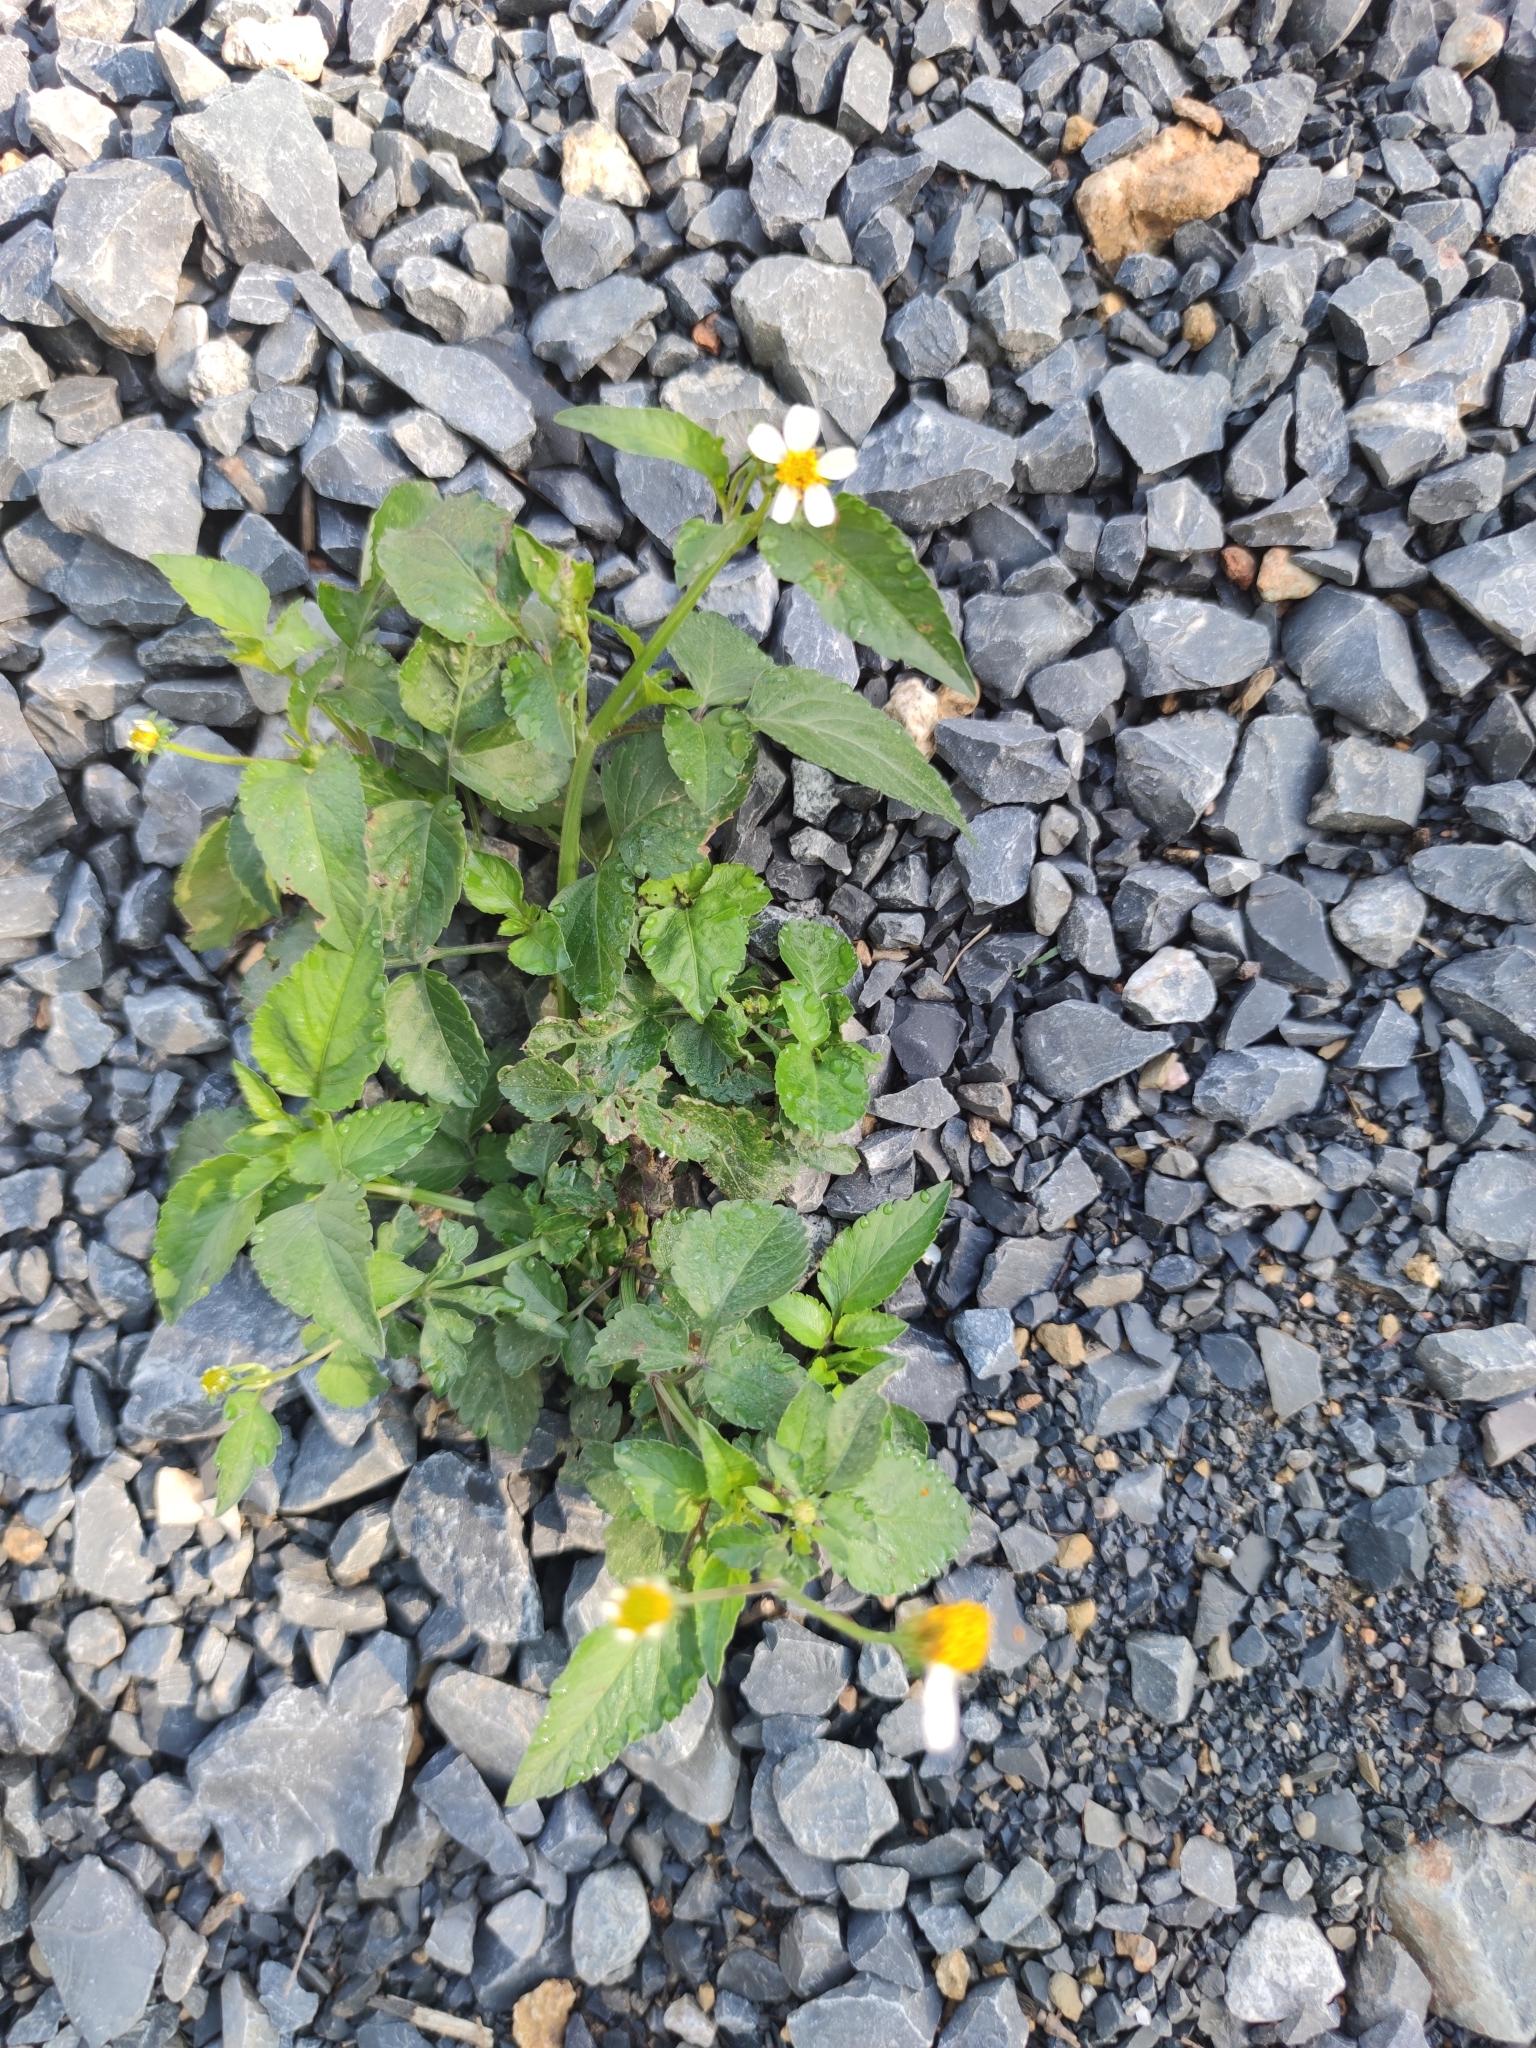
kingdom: Plantae
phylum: Tracheophyta
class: Magnoliopsida
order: Asterales
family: Asteraceae
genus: Bidens
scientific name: Bidens pilosa
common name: Black-jack
